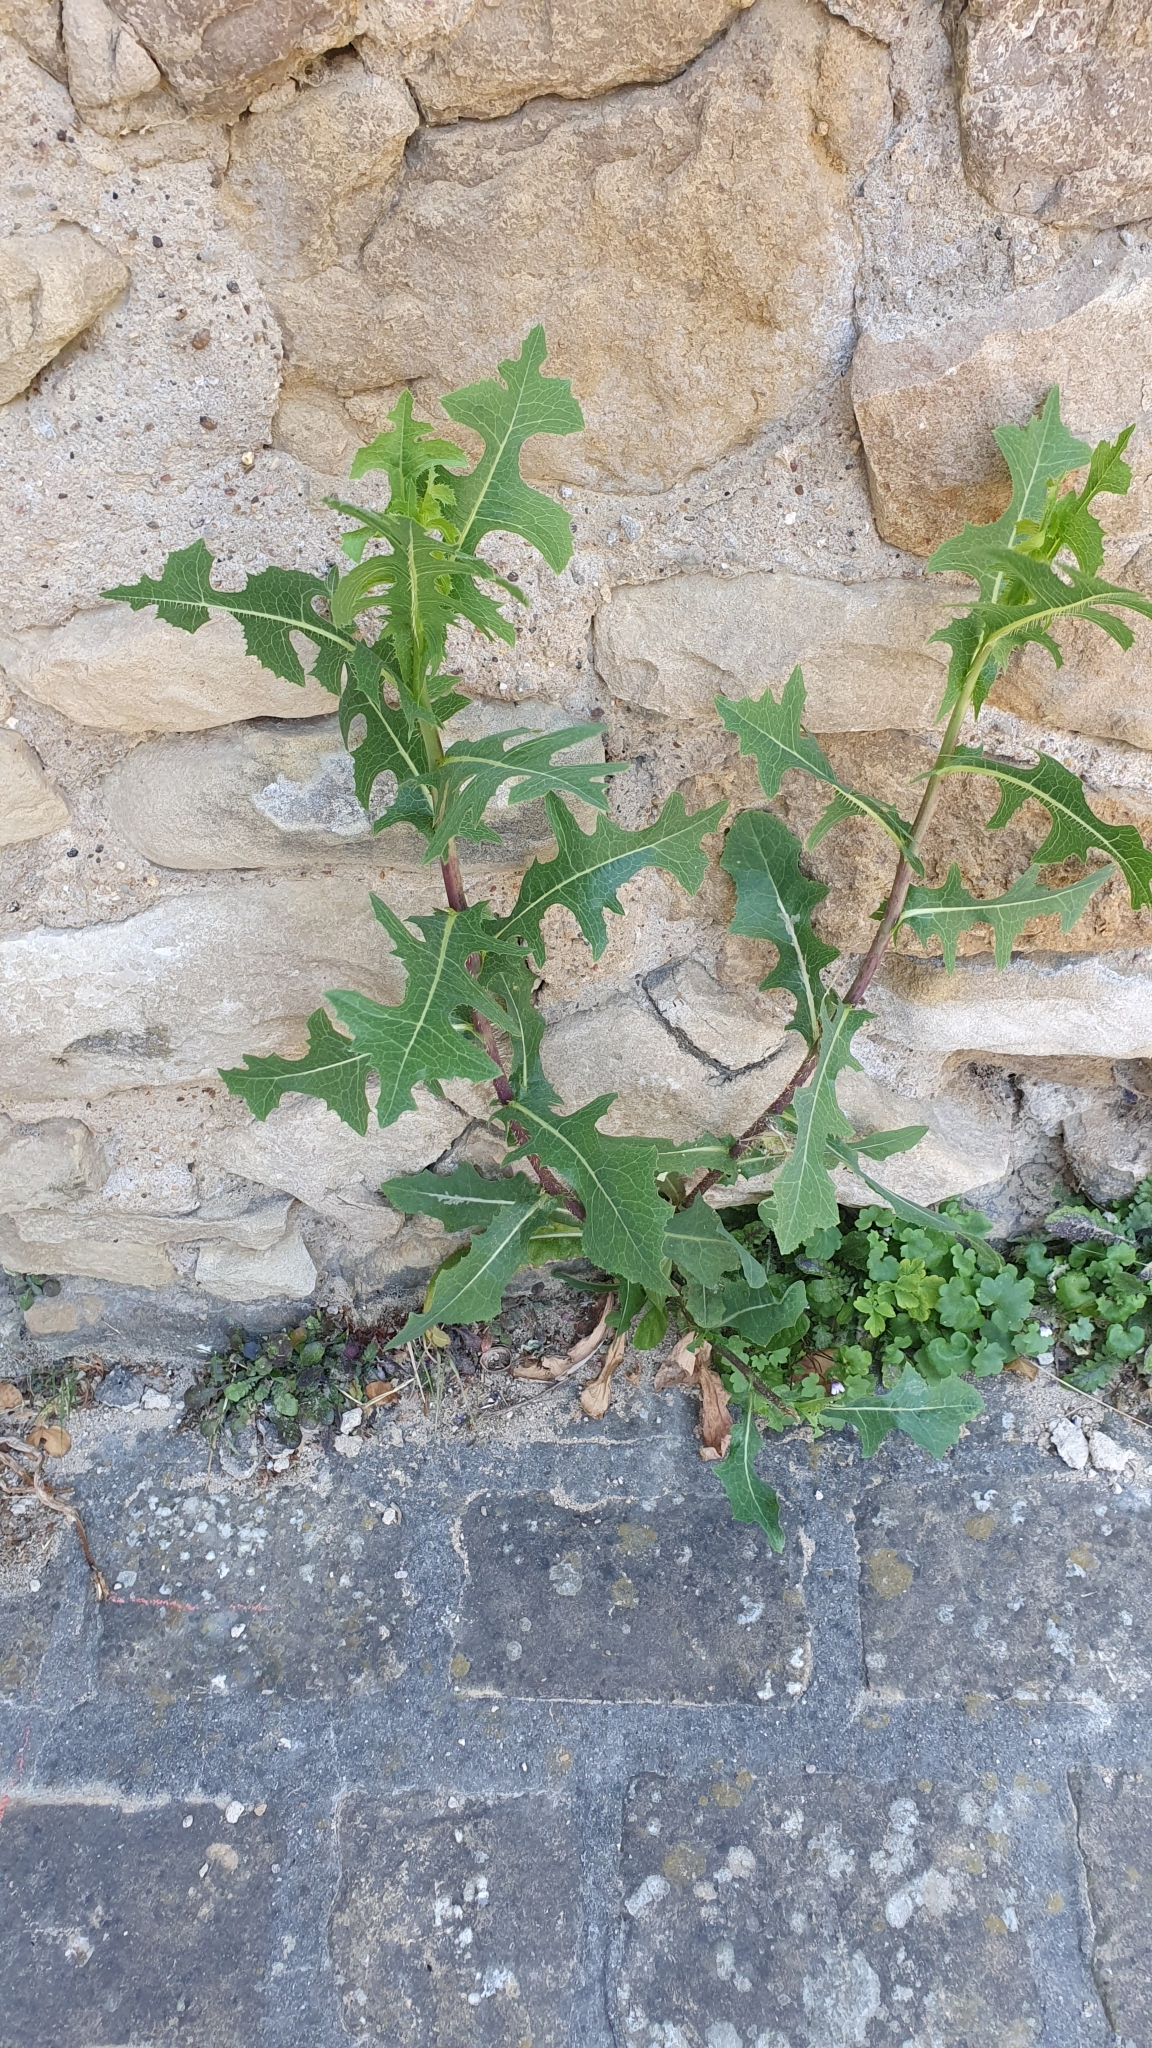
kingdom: Plantae
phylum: Tracheophyta
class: Magnoliopsida
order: Asterales
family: Asteraceae
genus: Lactuca
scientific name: Lactuca serriola
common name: Prickly lettuce
